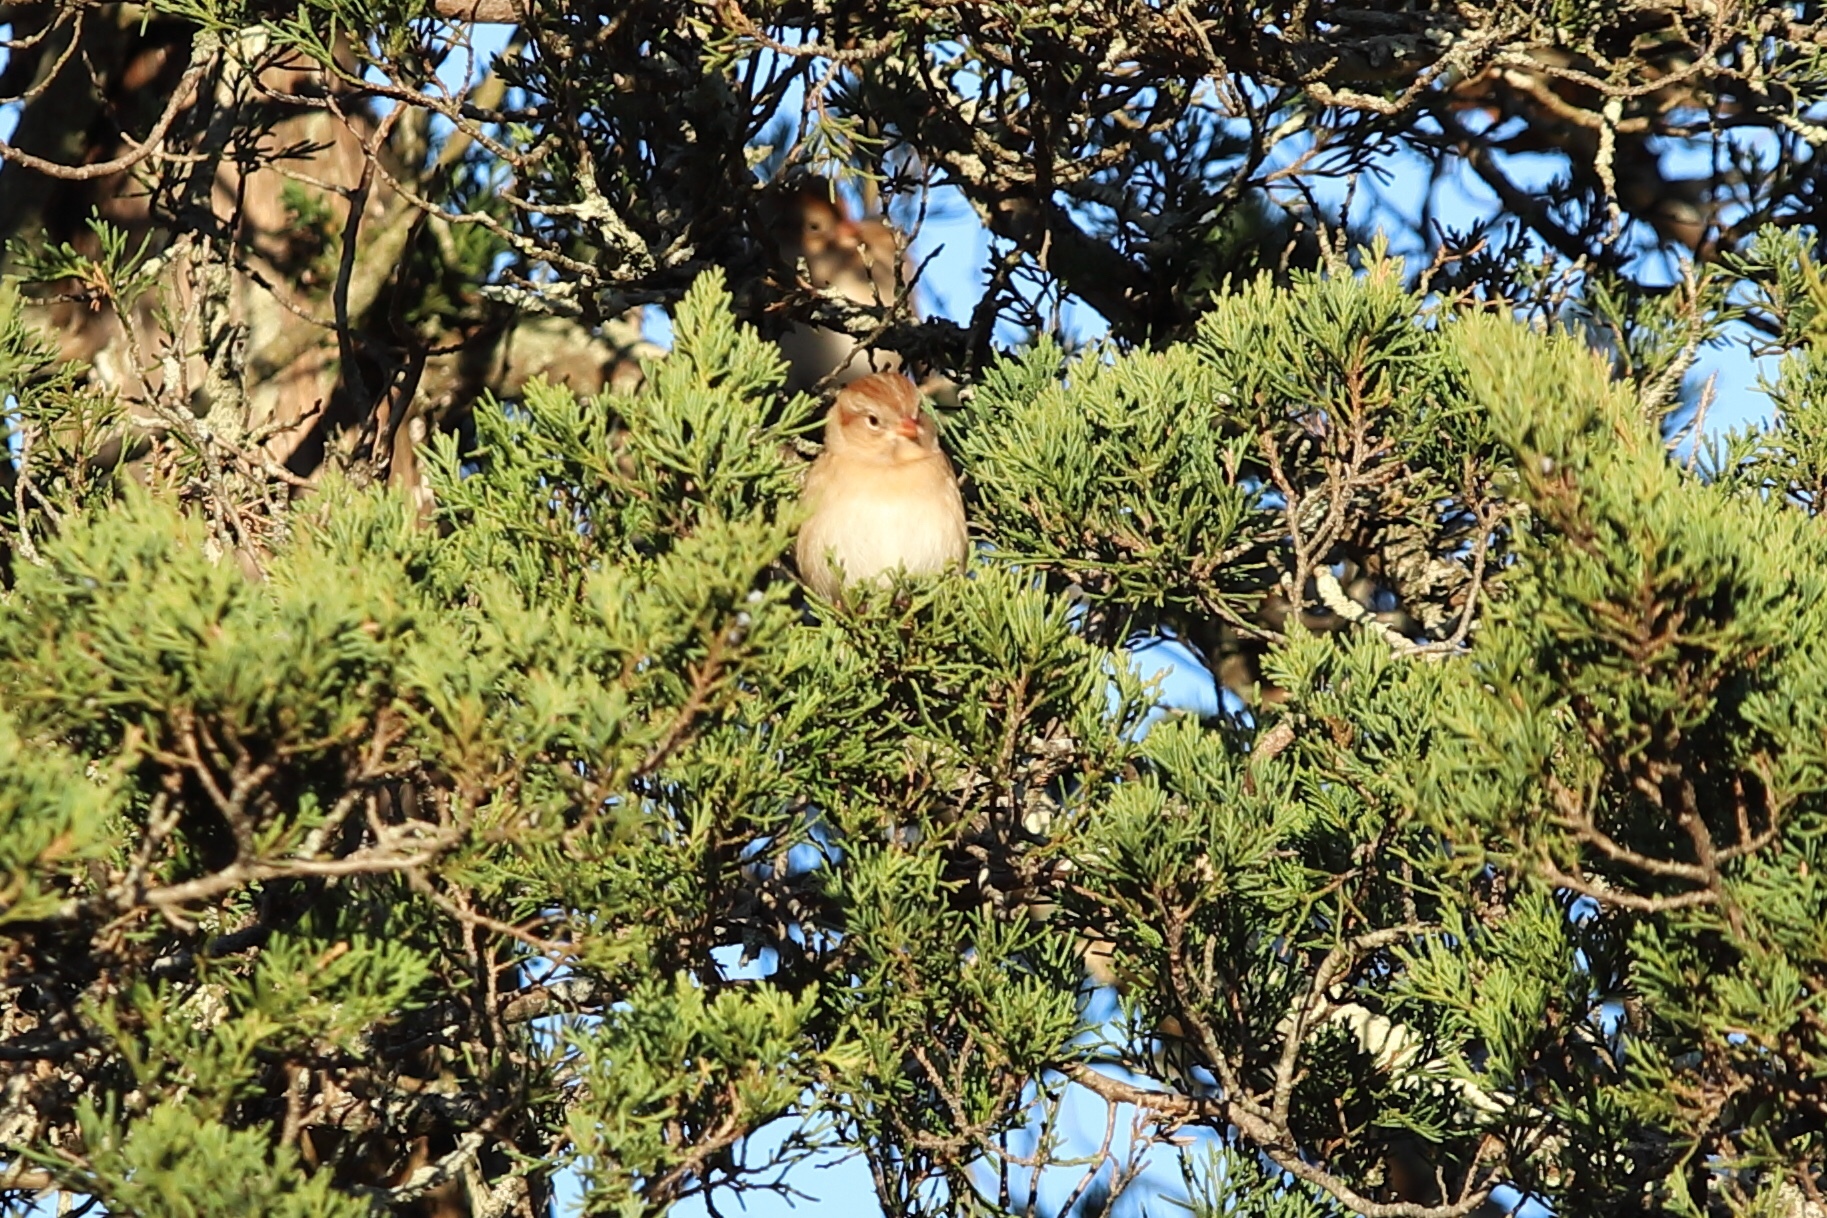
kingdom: Animalia
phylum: Chordata
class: Aves
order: Passeriformes
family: Passerellidae
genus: Spizella
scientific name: Spizella pusilla
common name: Field sparrow
